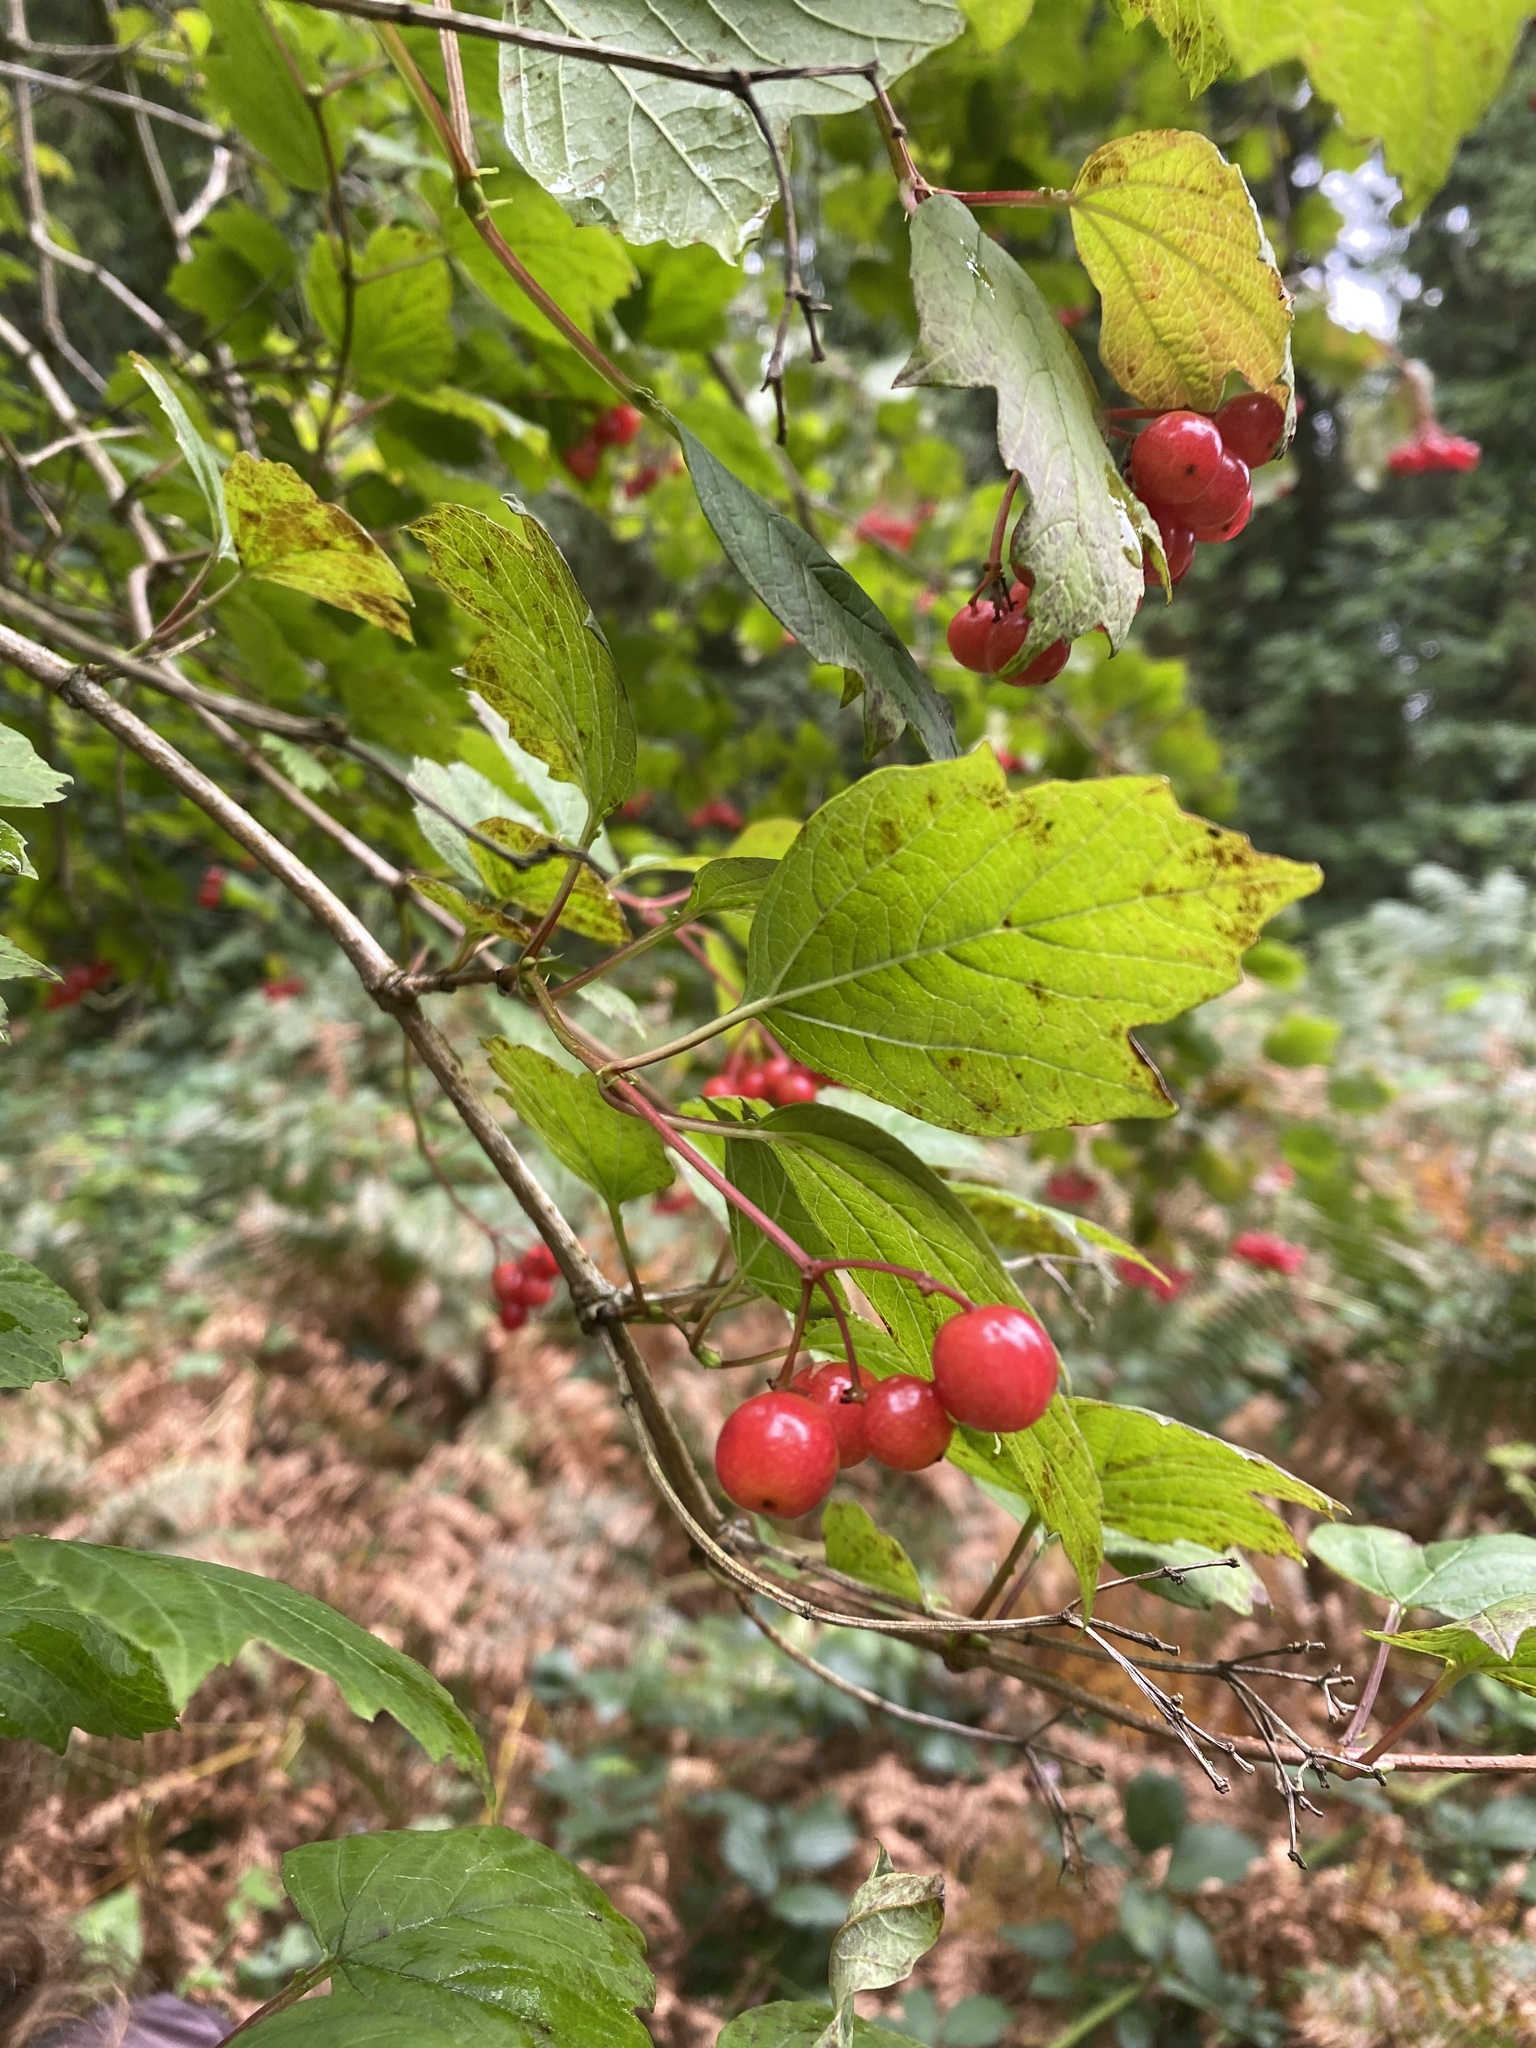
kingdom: Plantae
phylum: Tracheophyta
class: Magnoliopsida
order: Dipsacales
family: Viburnaceae
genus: Viburnum
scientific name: Viburnum opulus
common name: Guelder-rose
